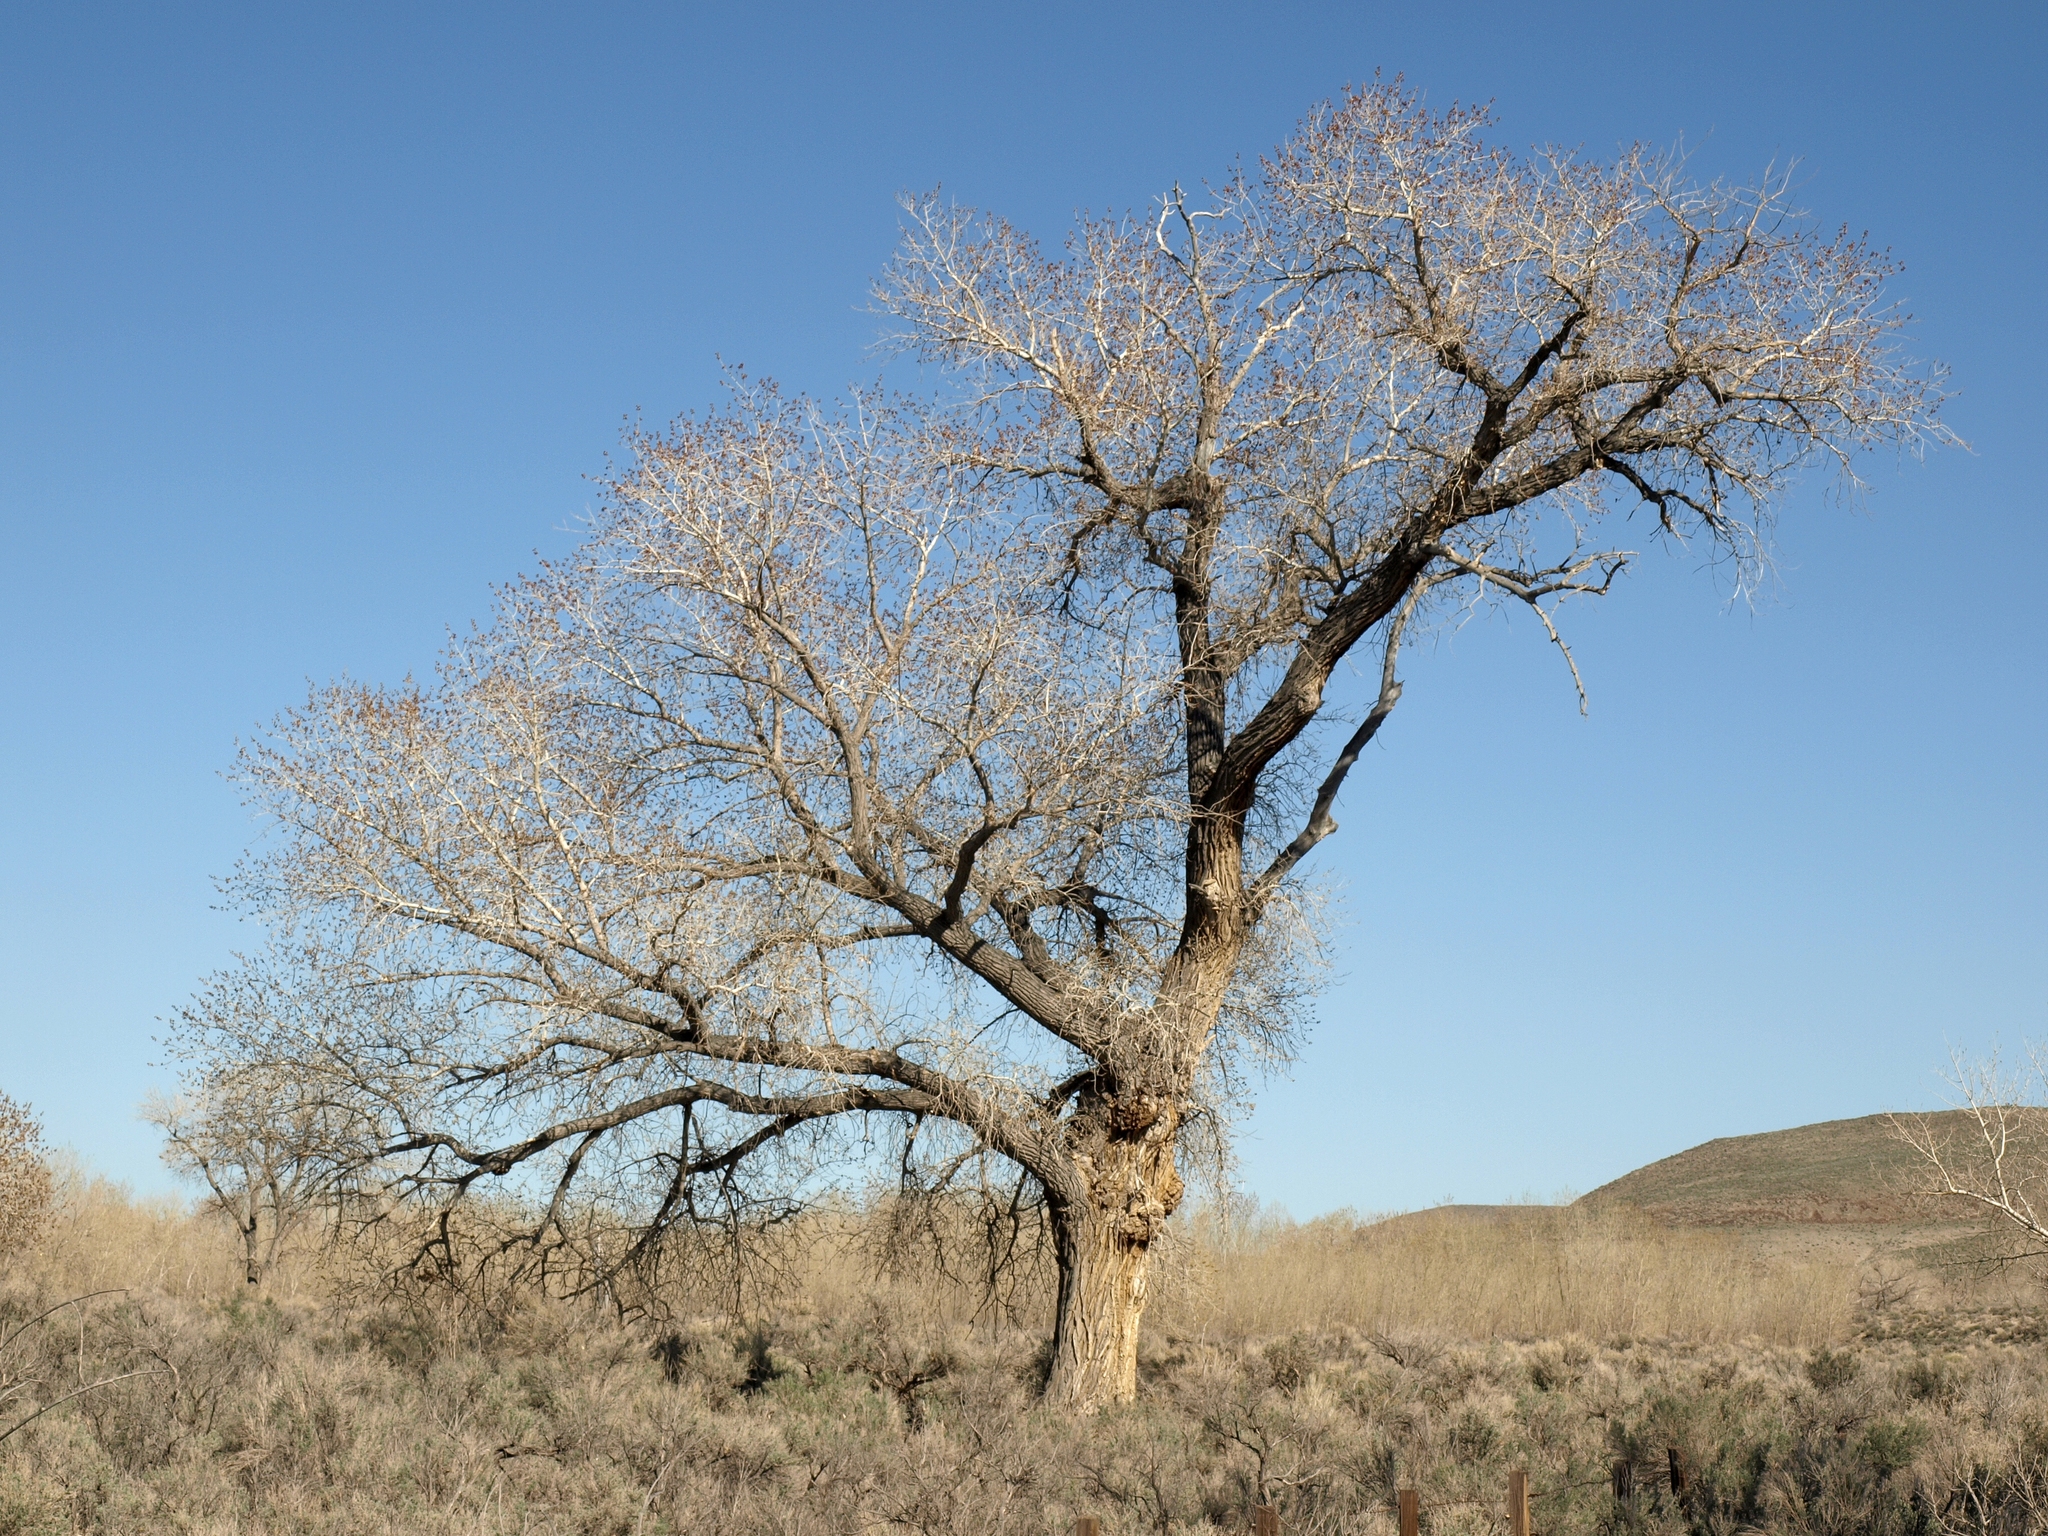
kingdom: Plantae
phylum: Tracheophyta
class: Magnoliopsida
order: Malpighiales
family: Salicaceae
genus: Populus
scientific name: Populus fremontii
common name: Fremont's cottonwood
